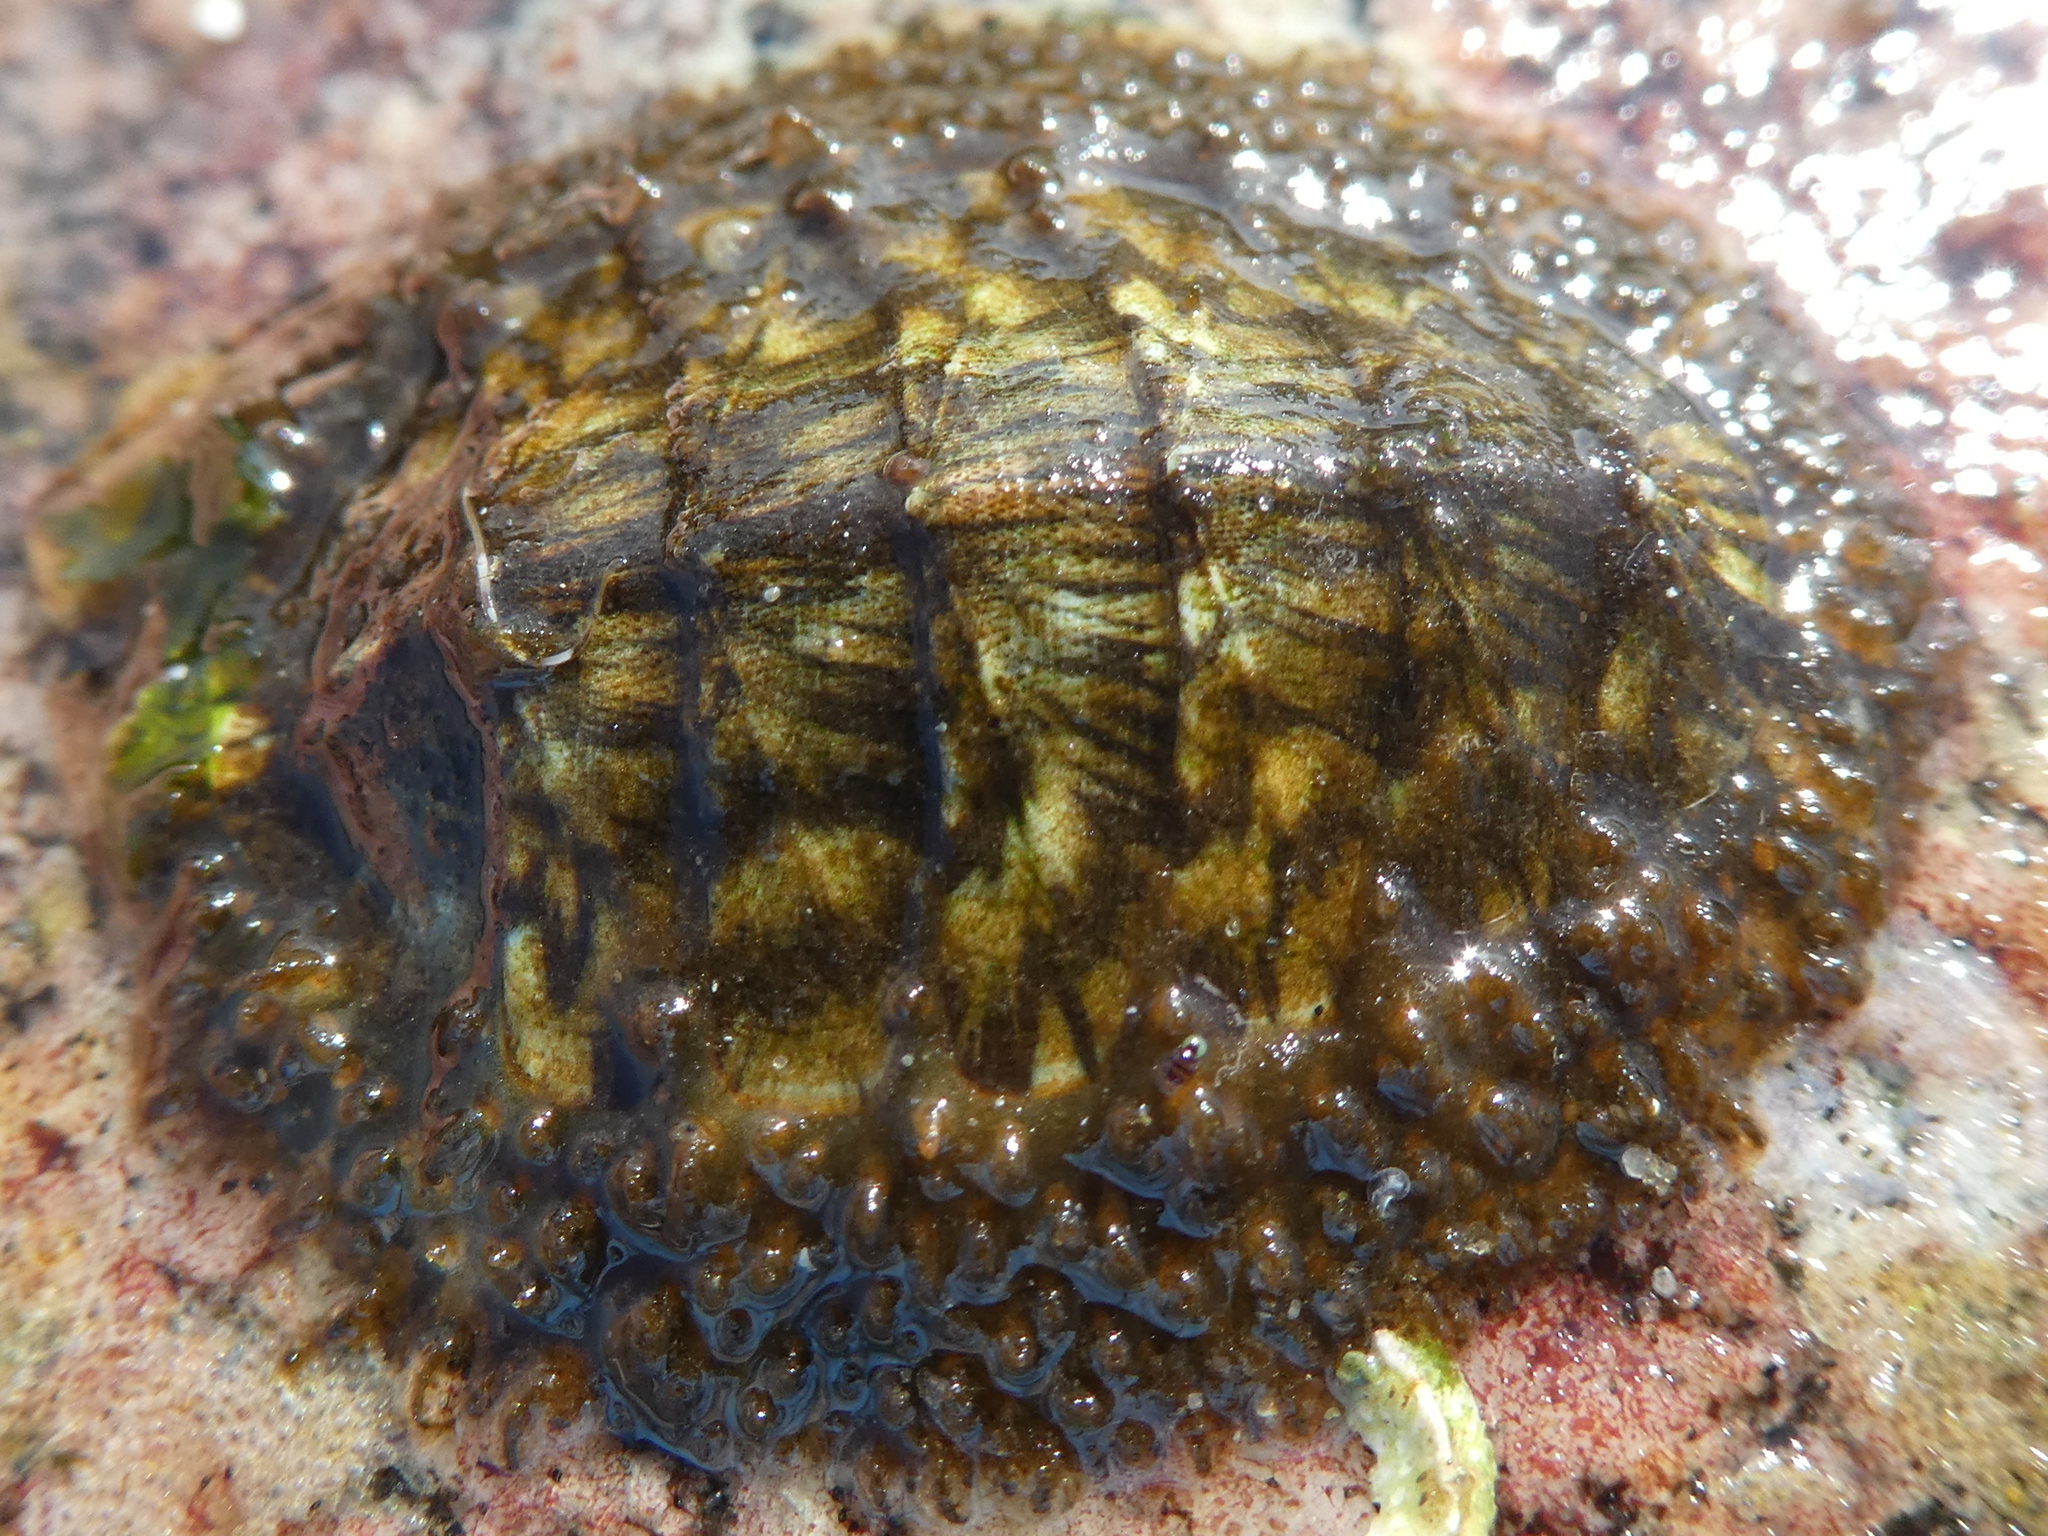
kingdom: Animalia
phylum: Mollusca
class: Polyplacophora
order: Chitonida
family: Mopaliidae
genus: Mopalia
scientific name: Mopalia lignosa
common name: Woody chiton
